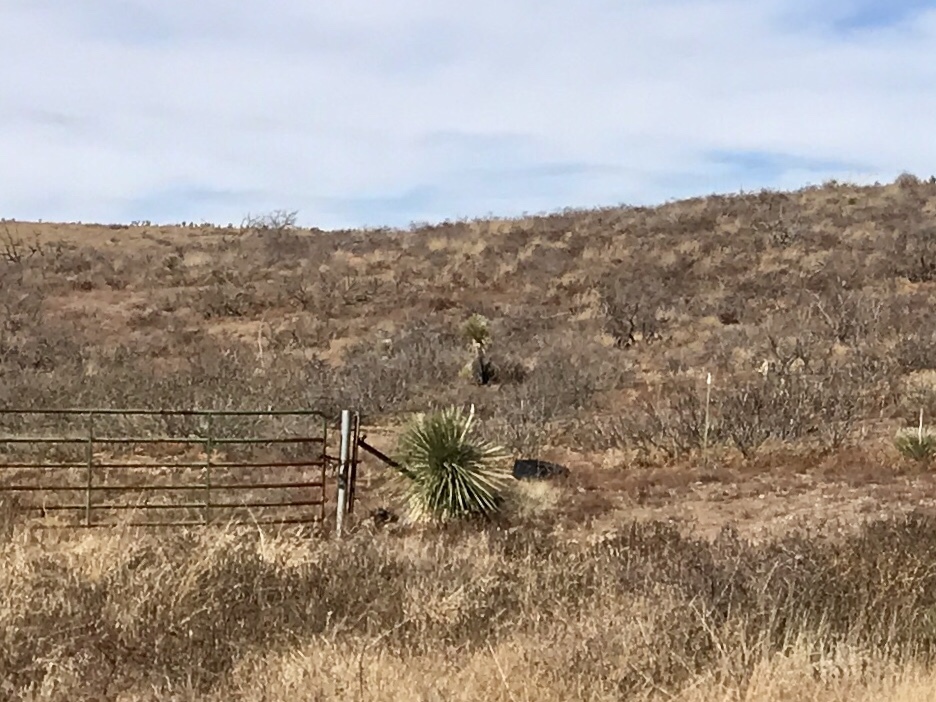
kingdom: Plantae
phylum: Tracheophyta
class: Liliopsida
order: Asparagales
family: Asparagaceae
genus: Yucca
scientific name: Yucca elata
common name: Palmella
